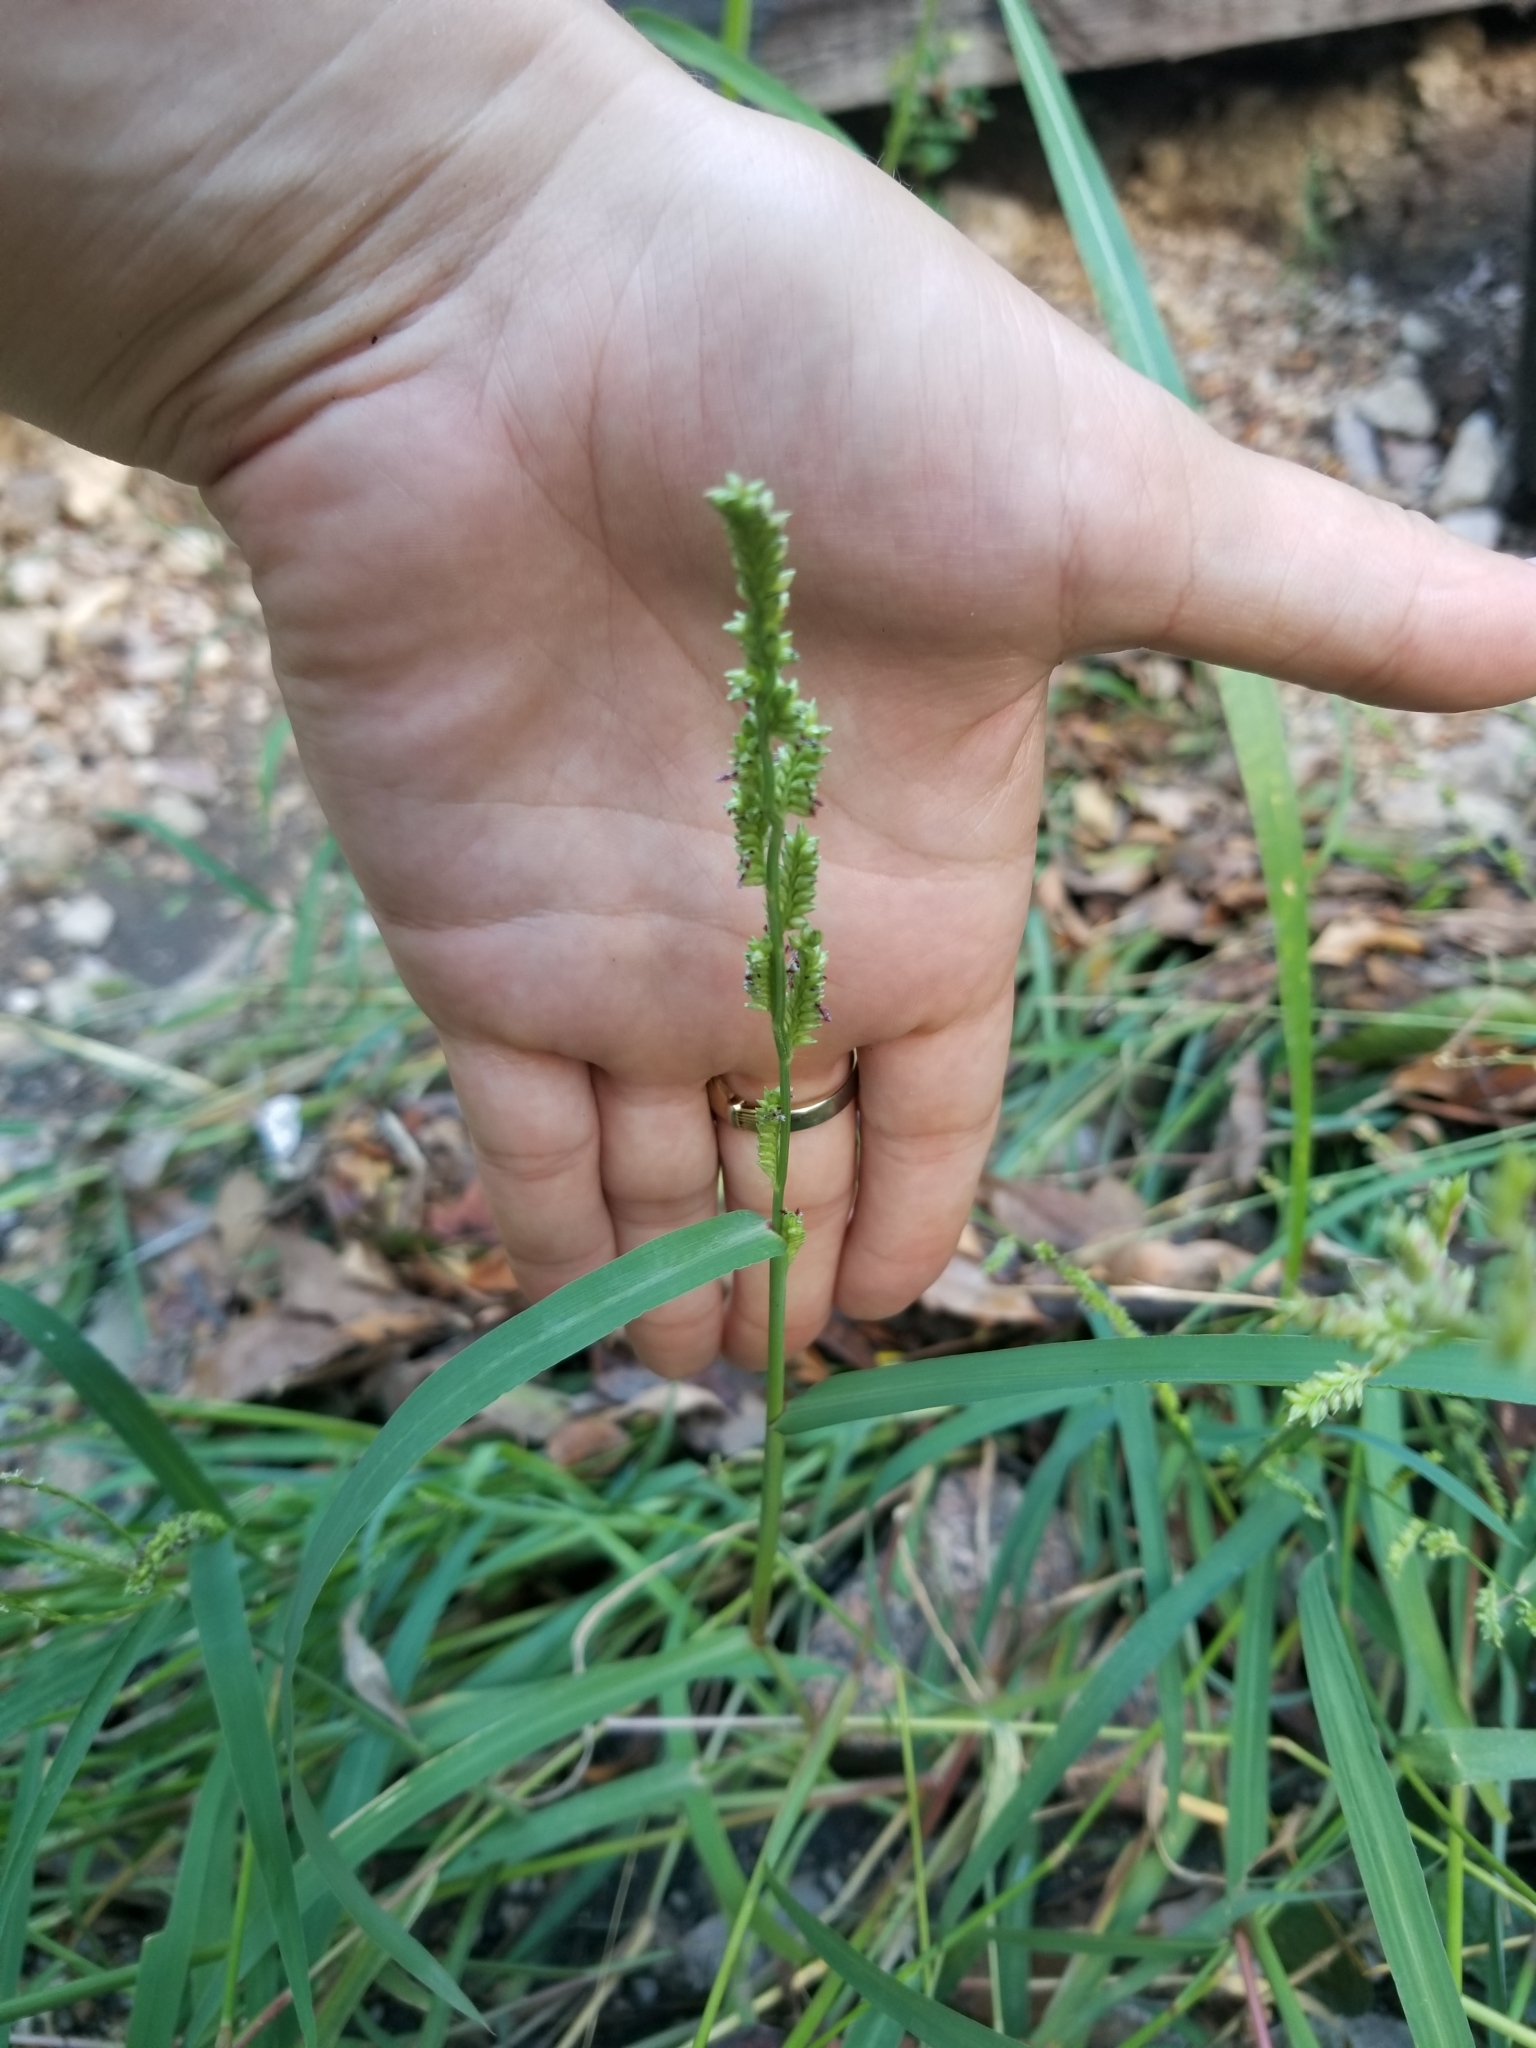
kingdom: Plantae
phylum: Tracheophyta
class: Liliopsida
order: Poales
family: Poaceae
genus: Echinochloa
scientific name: Echinochloa colonum
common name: Jungle rice
